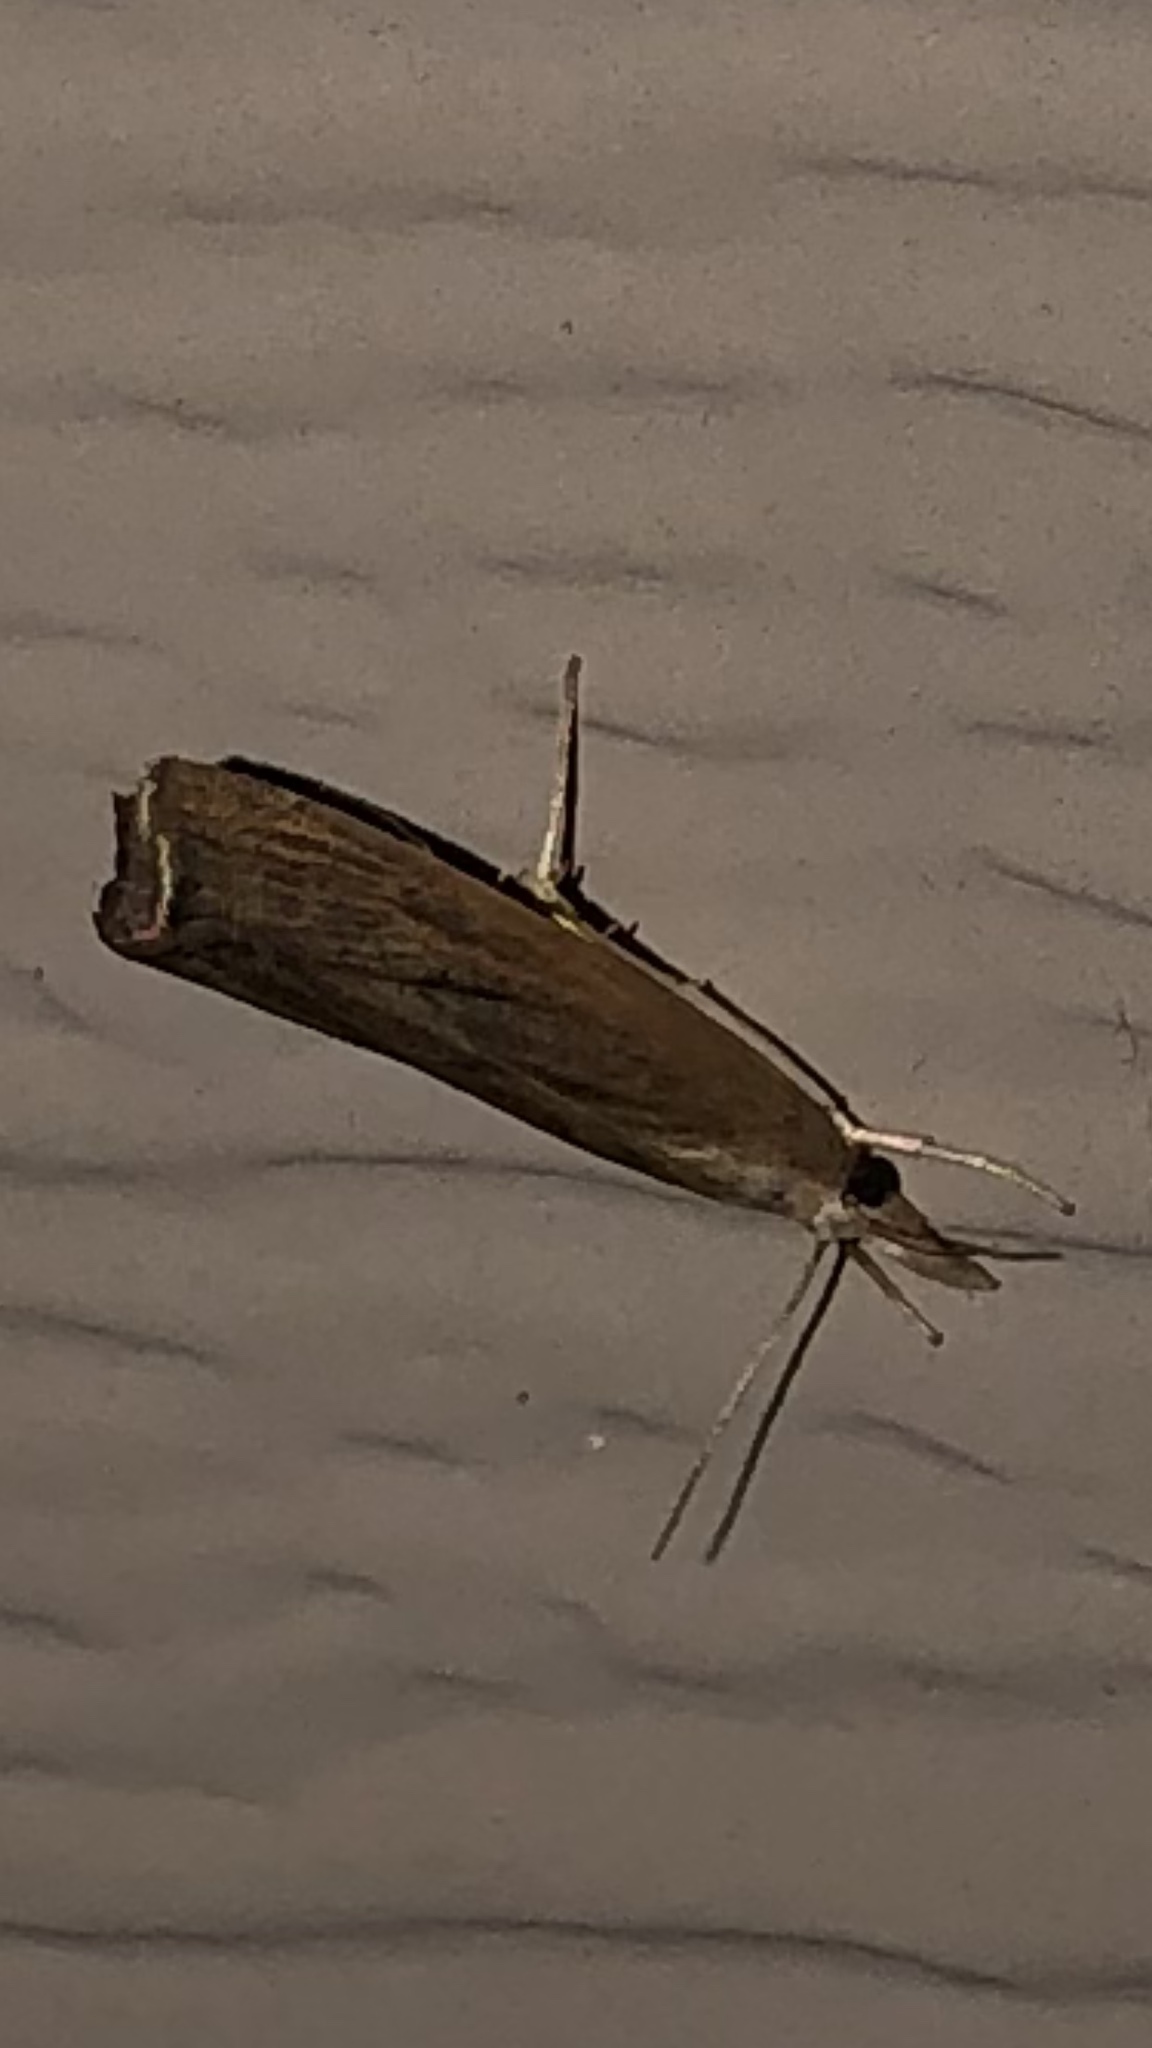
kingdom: Animalia
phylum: Arthropoda
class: Insecta
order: Lepidoptera
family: Crambidae
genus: Parapediasia
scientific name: Parapediasia teterellus
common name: Bluegrass webworm moth
